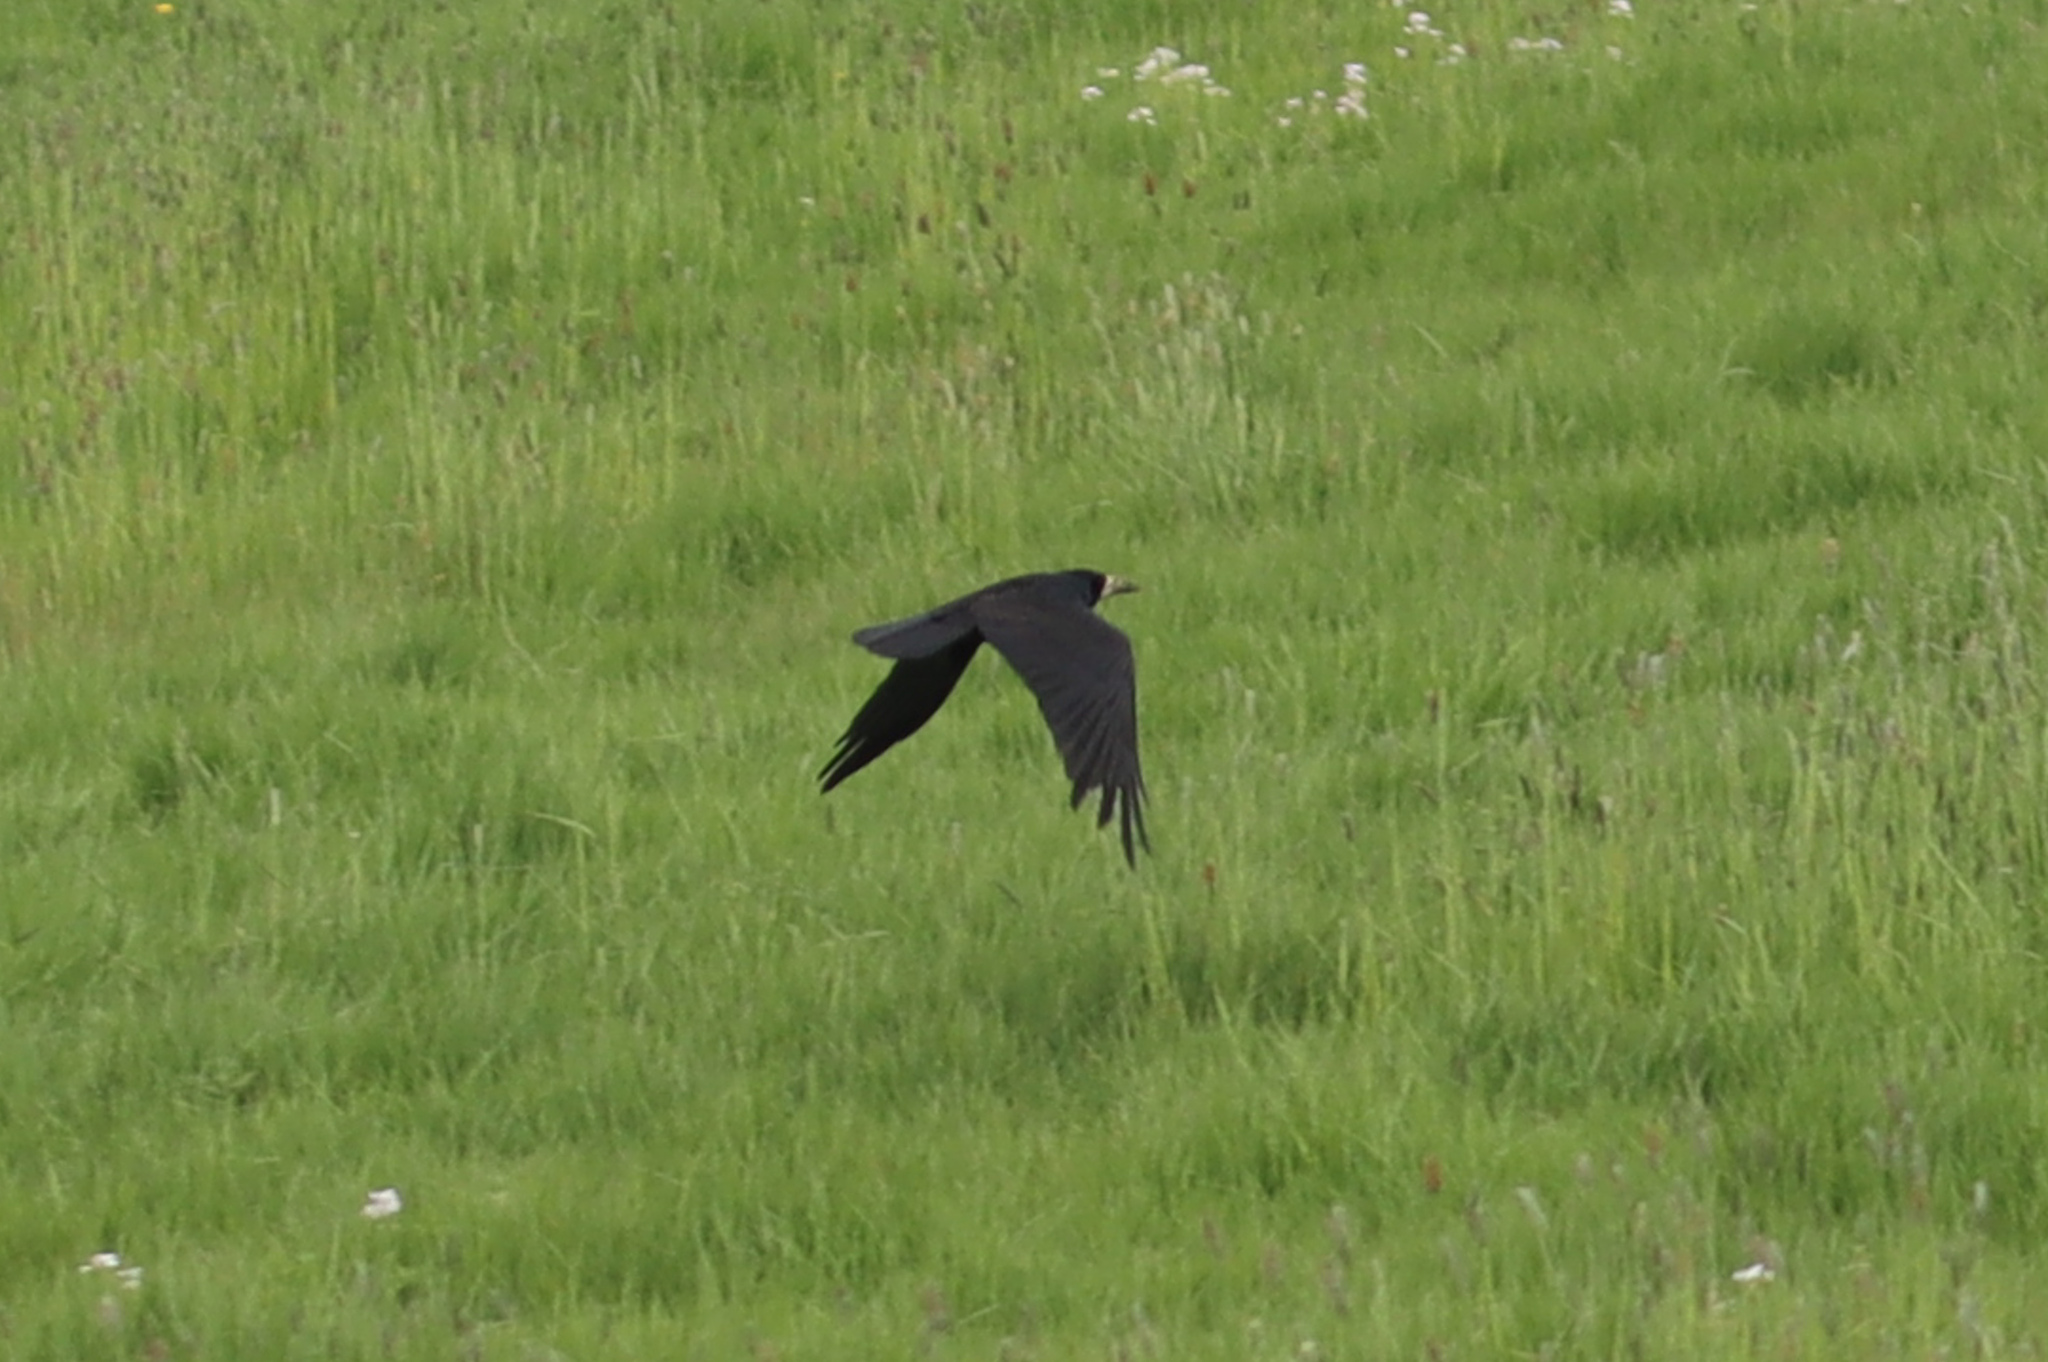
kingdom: Animalia
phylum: Chordata
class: Aves
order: Passeriformes
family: Corvidae
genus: Corvus
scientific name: Corvus frugilegus
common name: Rook
